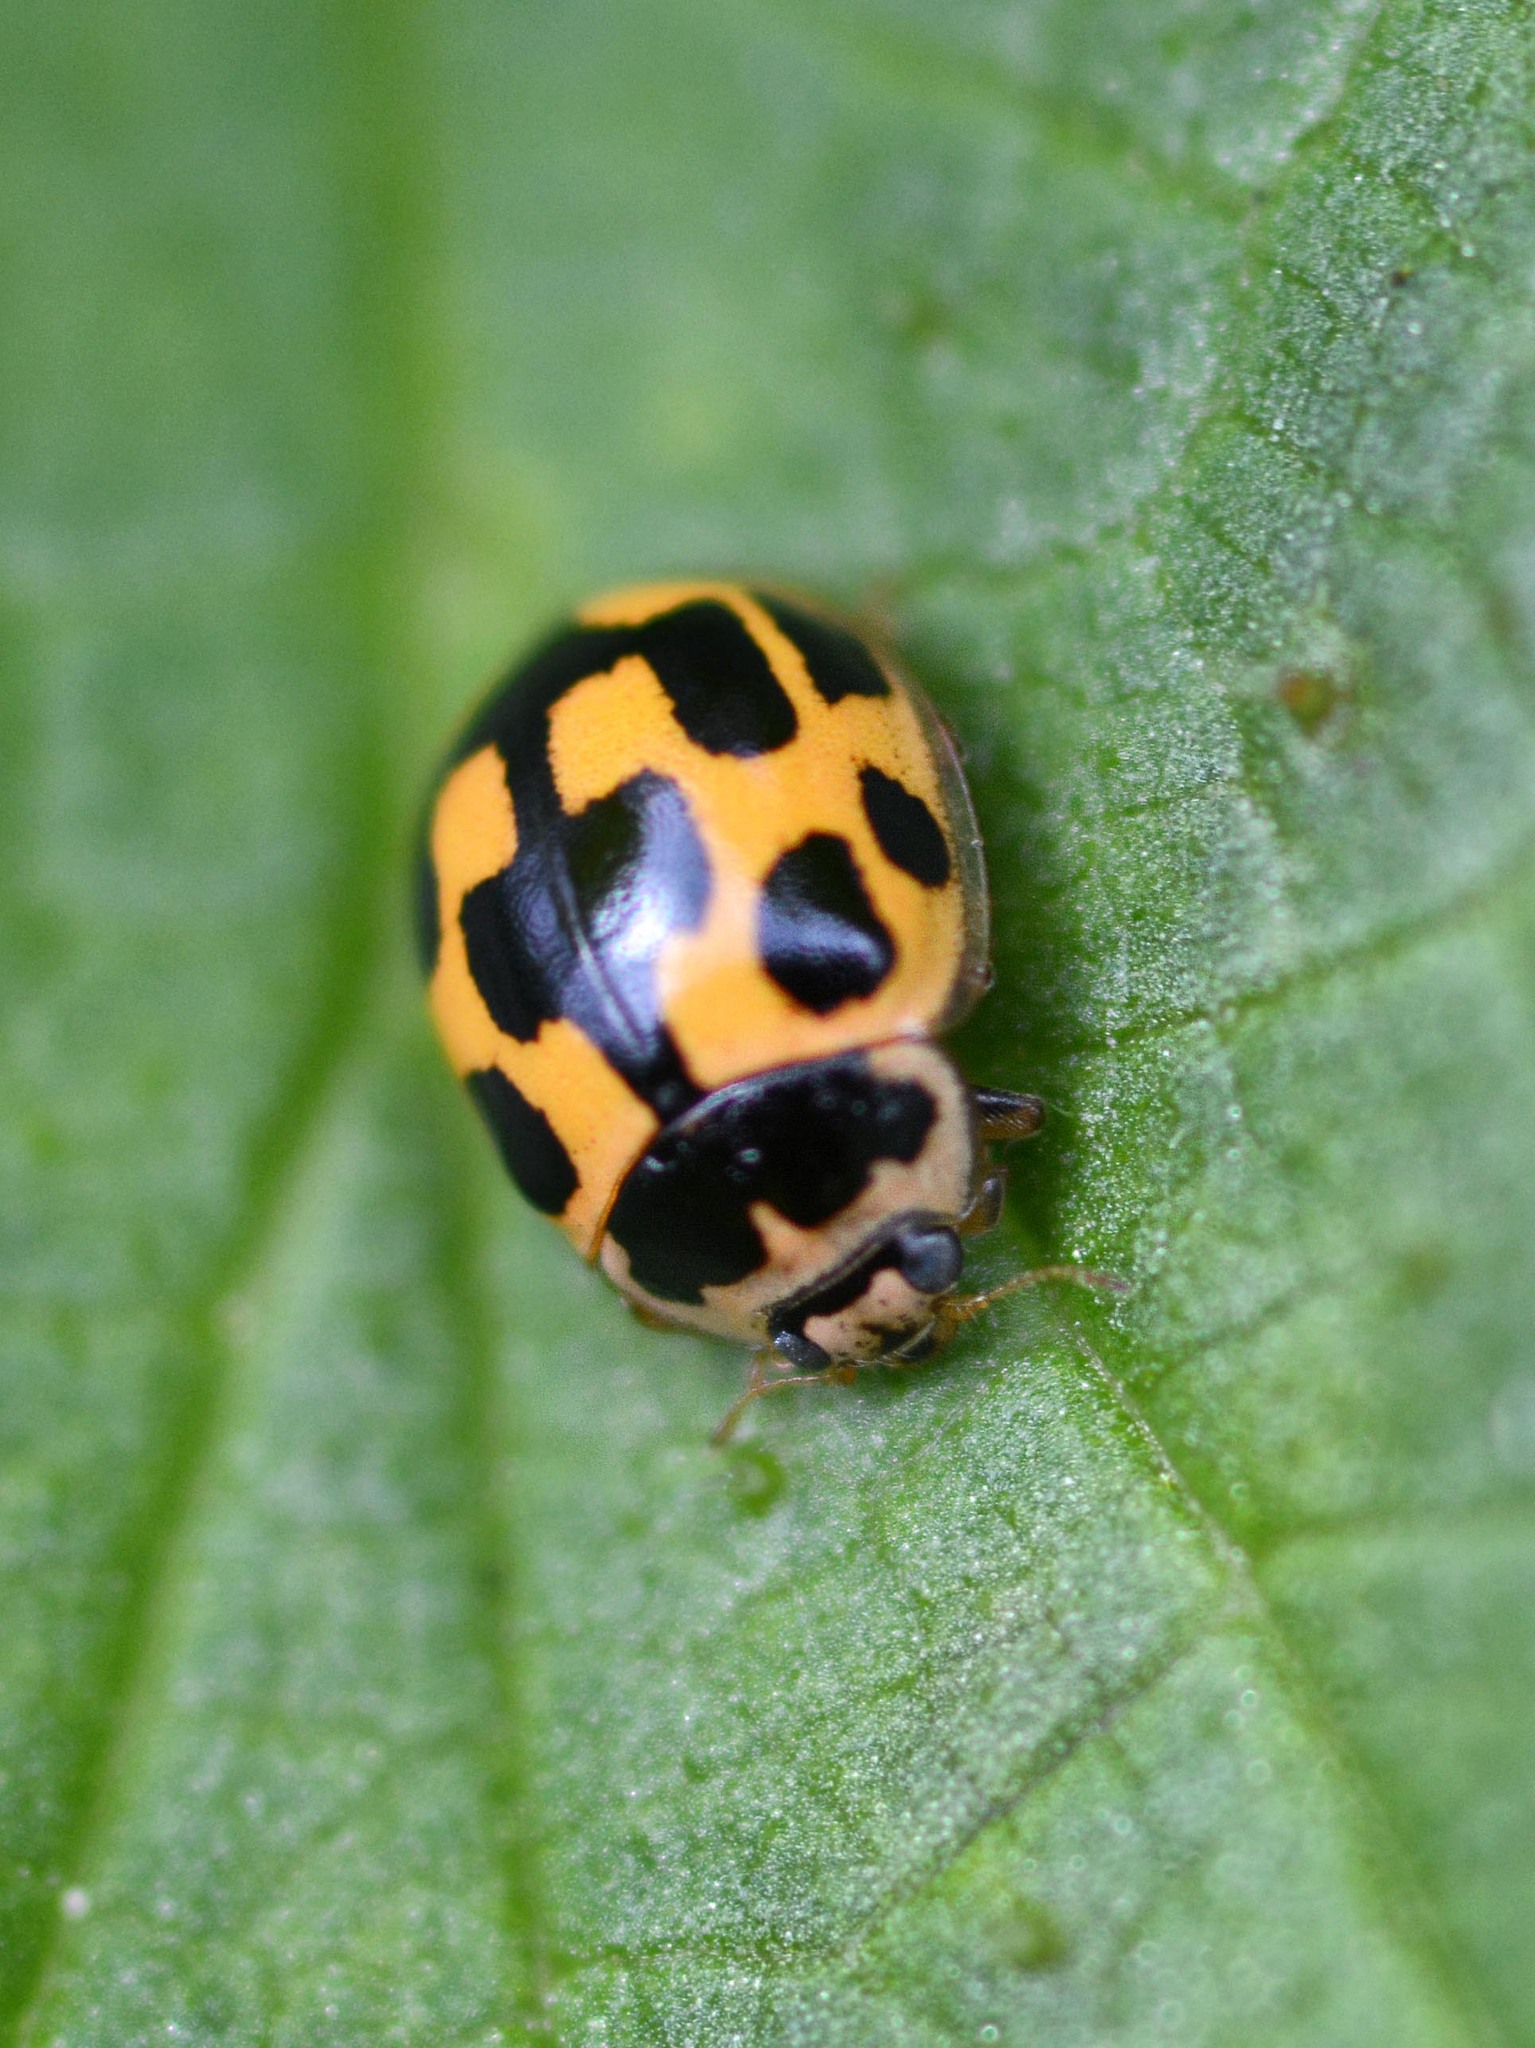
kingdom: Animalia
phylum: Arthropoda
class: Insecta
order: Coleoptera
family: Coccinellidae
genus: Propylaea
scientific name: Propylaea quatuordecimpunctata
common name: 14-spotted ladybird beetle
